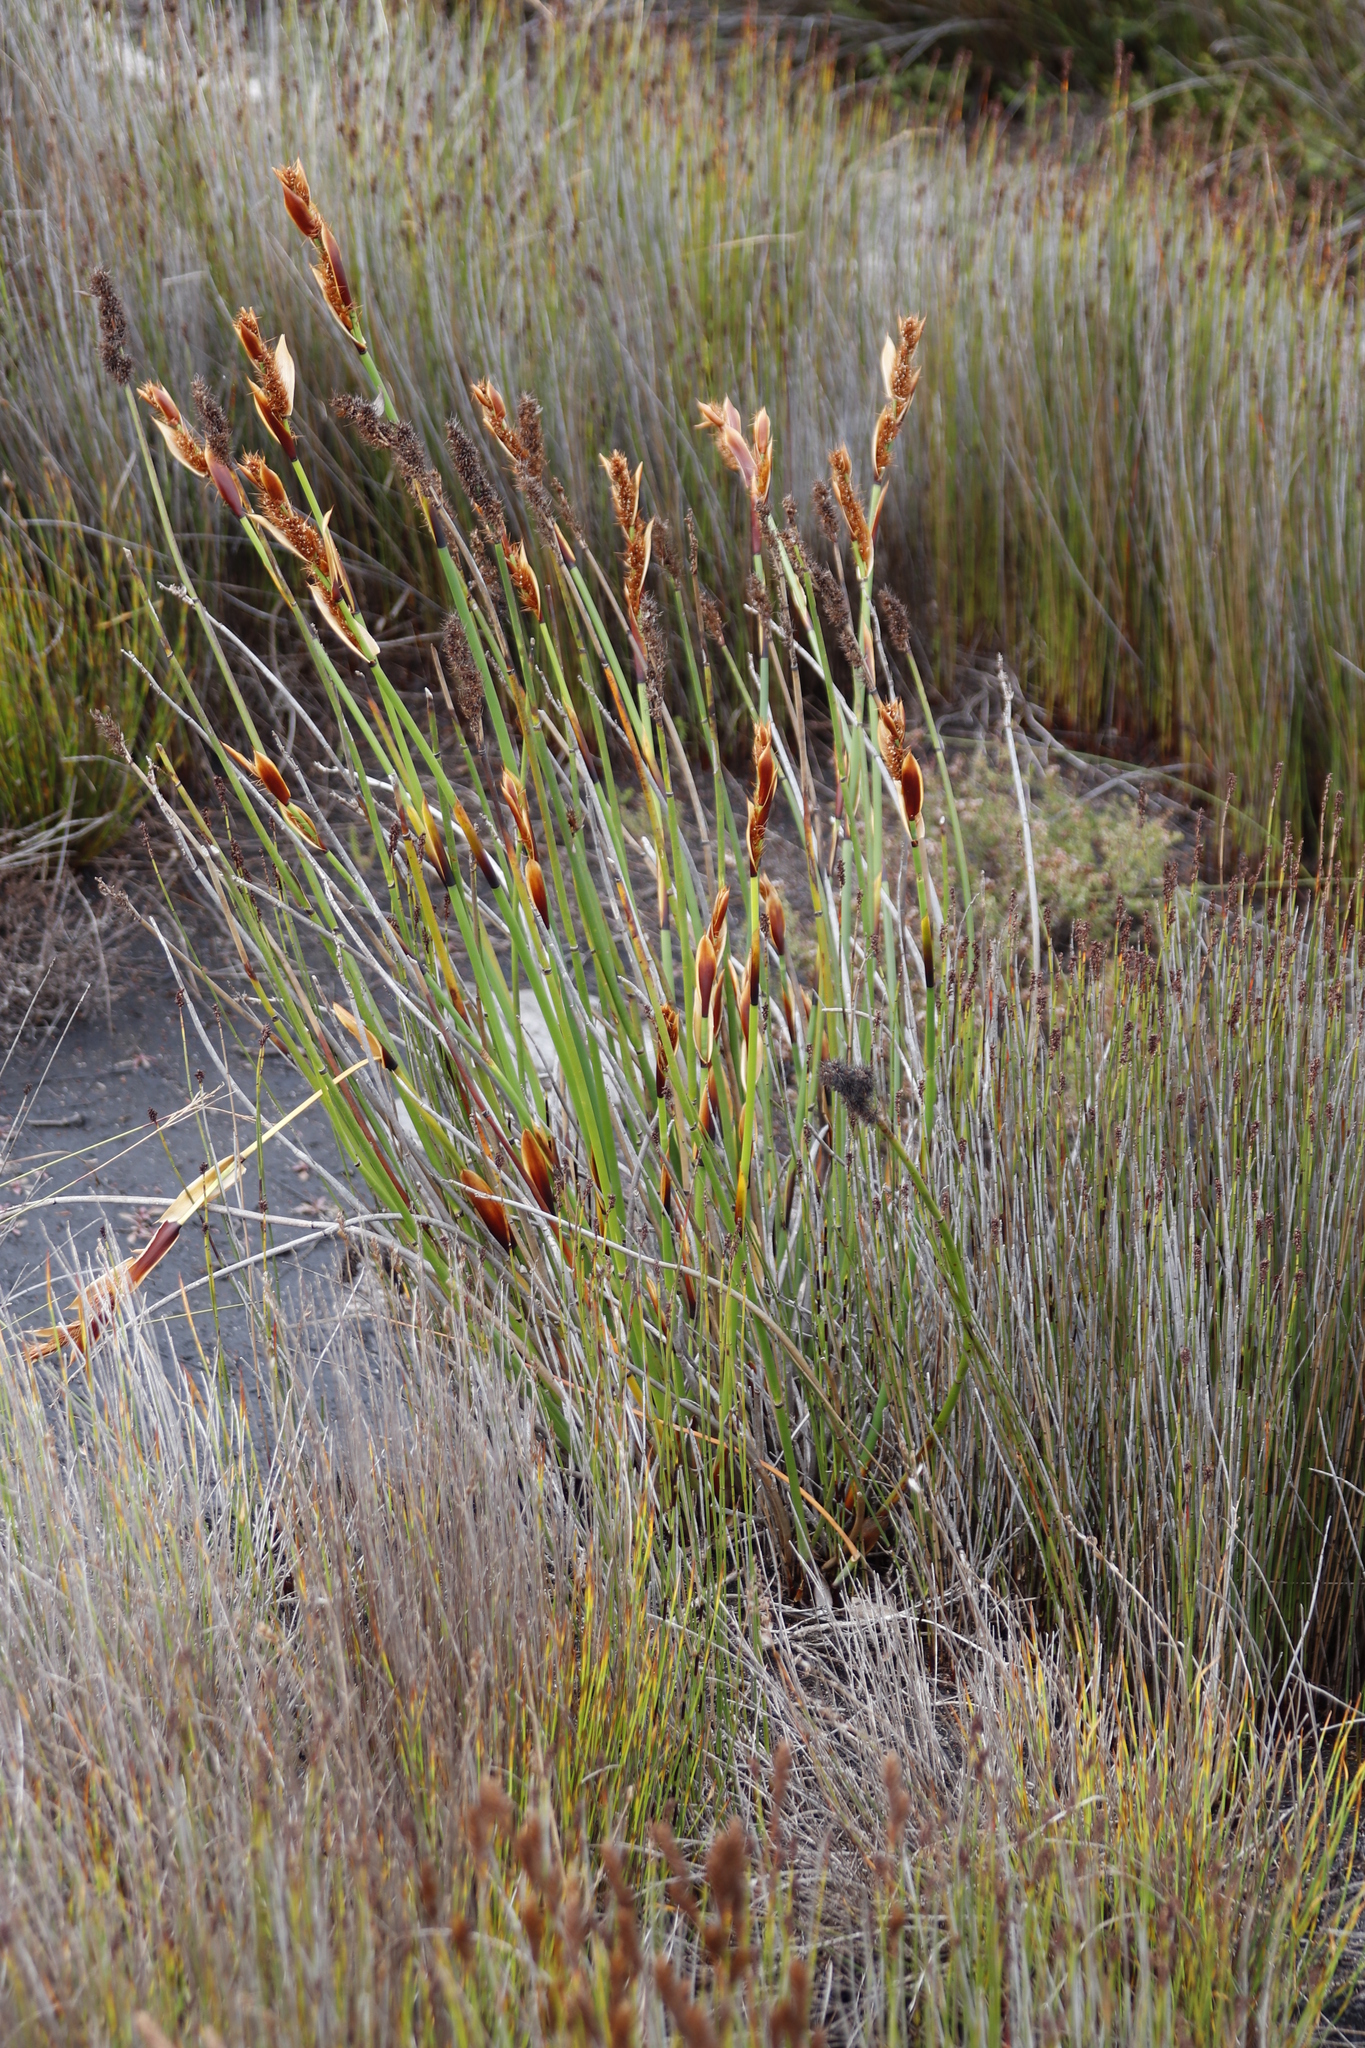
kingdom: Plantae
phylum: Tracheophyta
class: Liliopsida
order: Poales
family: Restionaceae
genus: Elegia
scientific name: Elegia cuspidata
